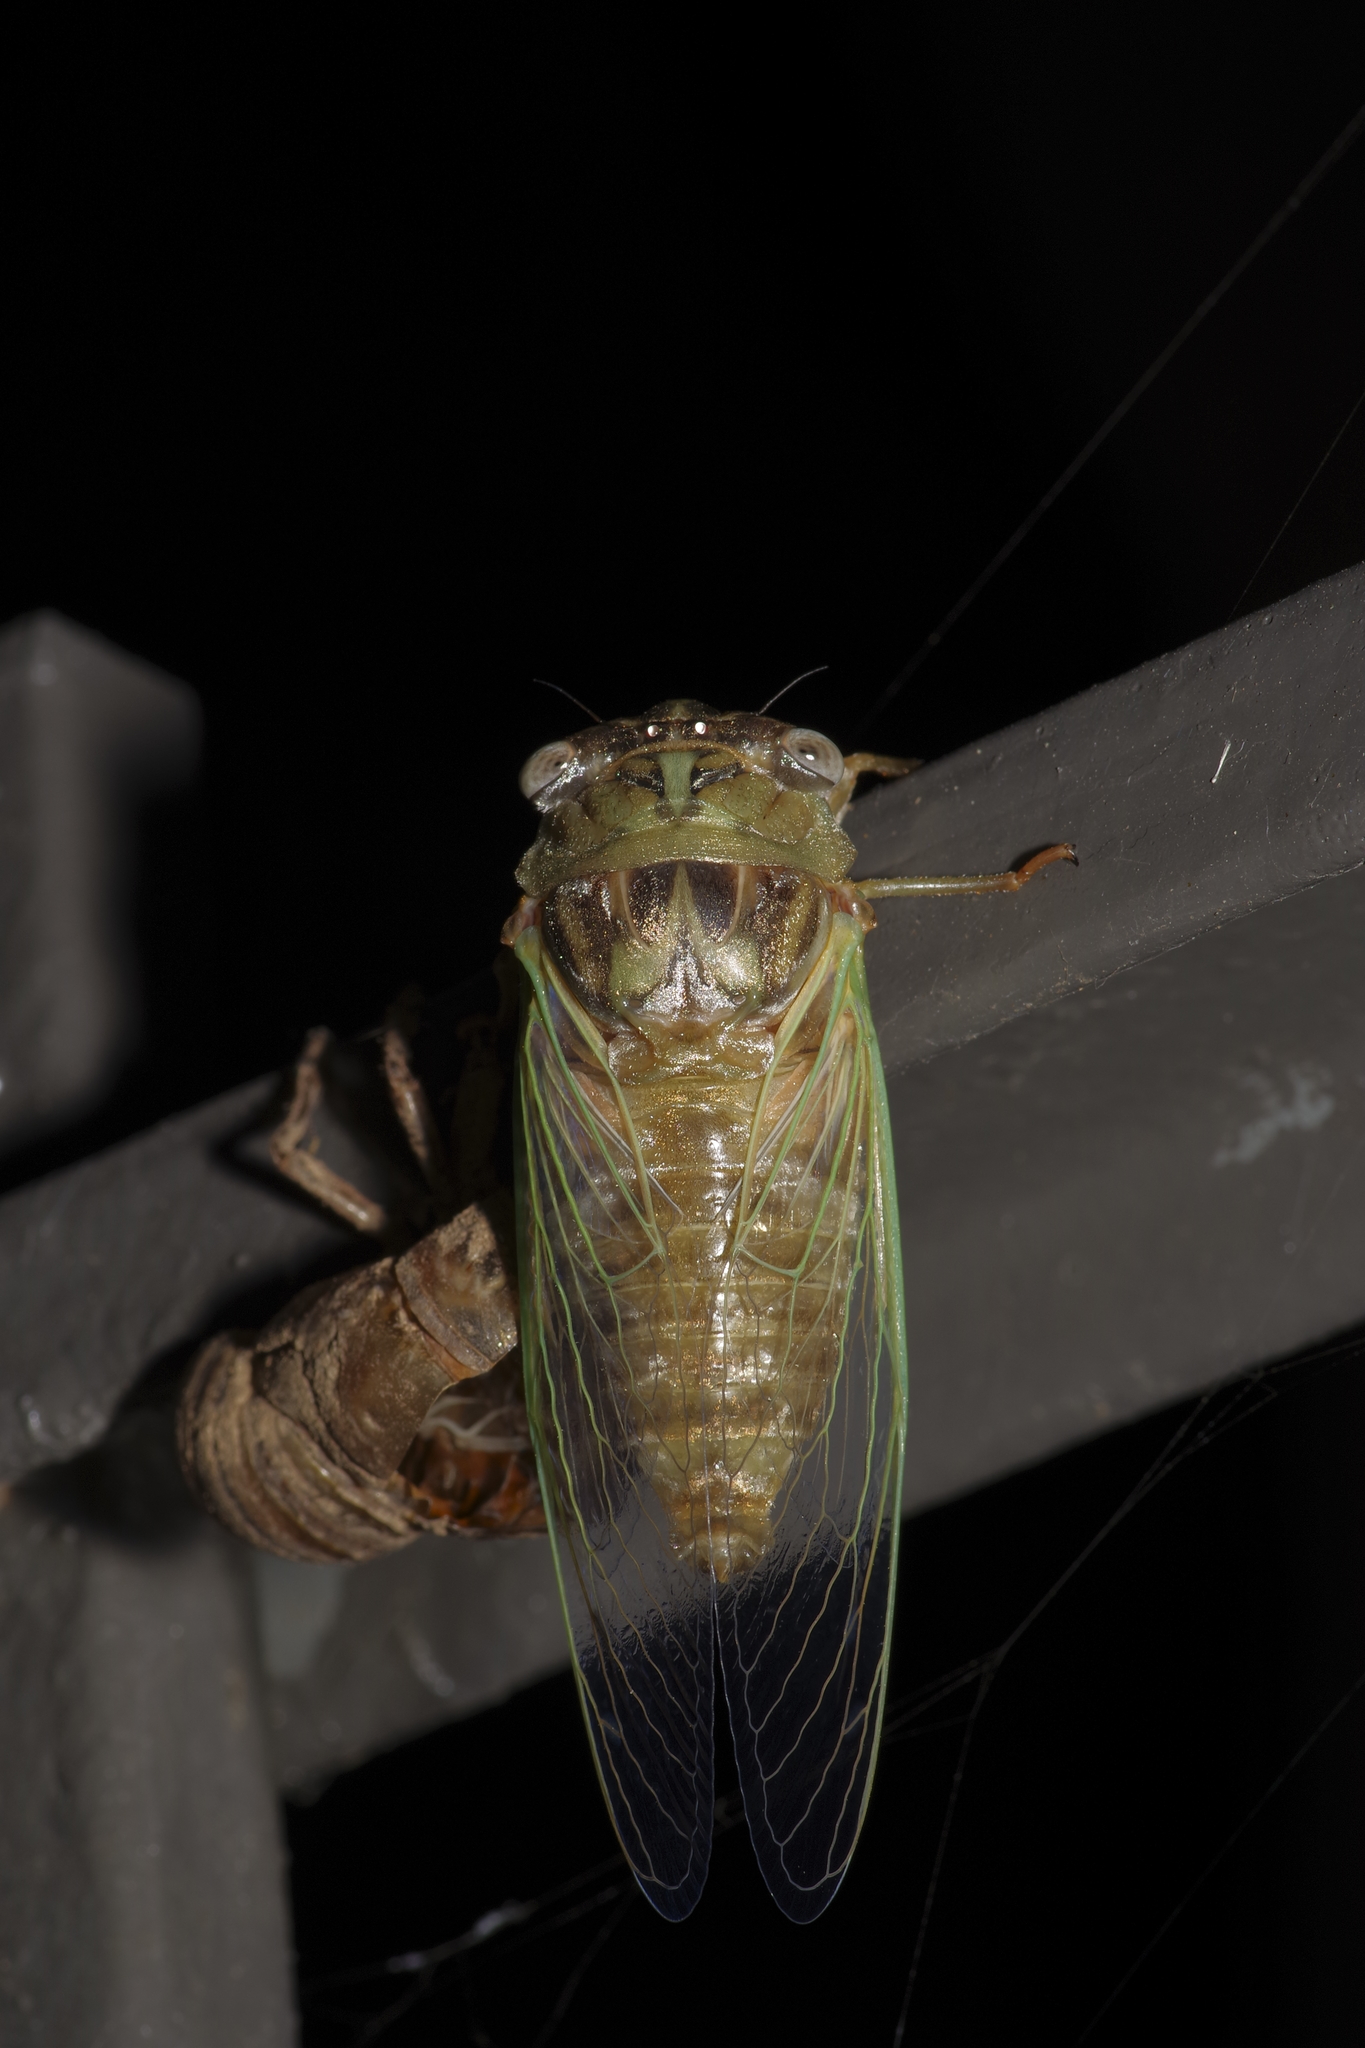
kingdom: Animalia
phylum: Arthropoda
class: Insecta
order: Hemiptera
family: Cicadidae
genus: Megatibicen
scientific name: Megatibicen resh
